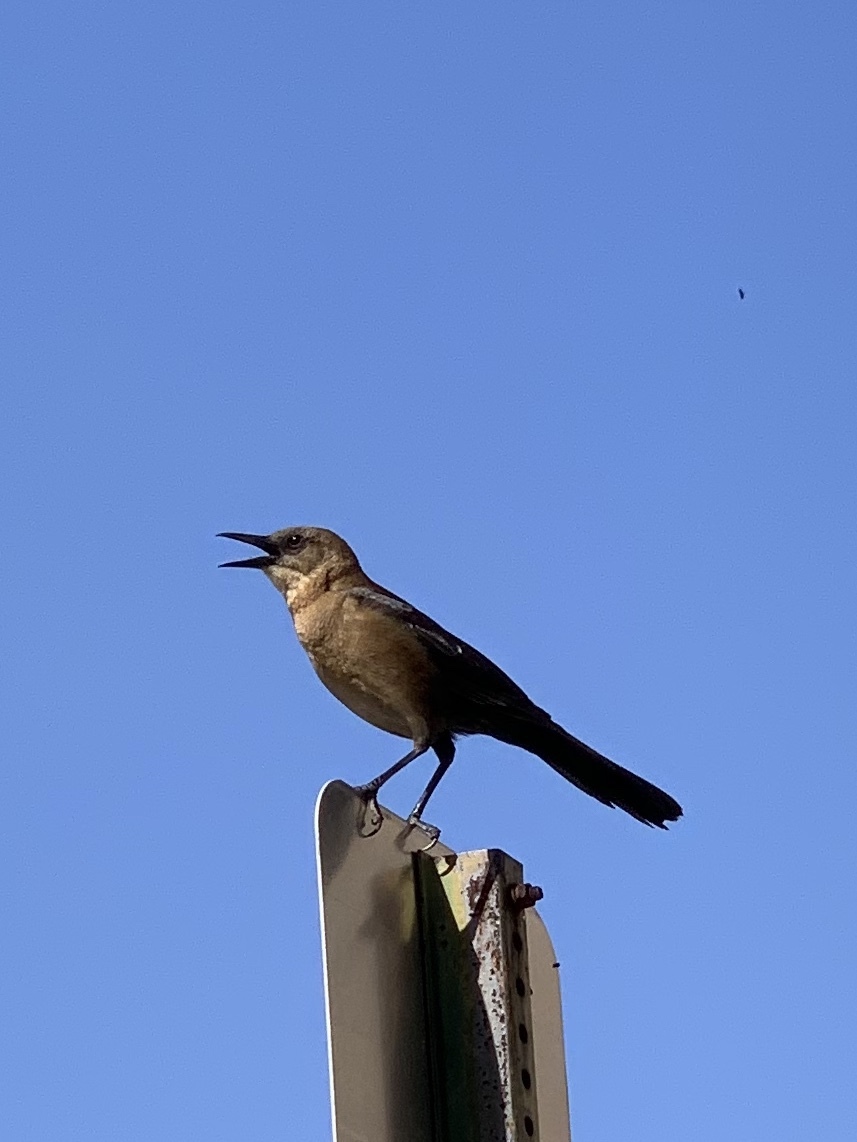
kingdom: Animalia
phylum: Chordata
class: Aves
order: Passeriformes
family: Icteridae
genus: Quiscalus
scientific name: Quiscalus major
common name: Boat-tailed grackle
